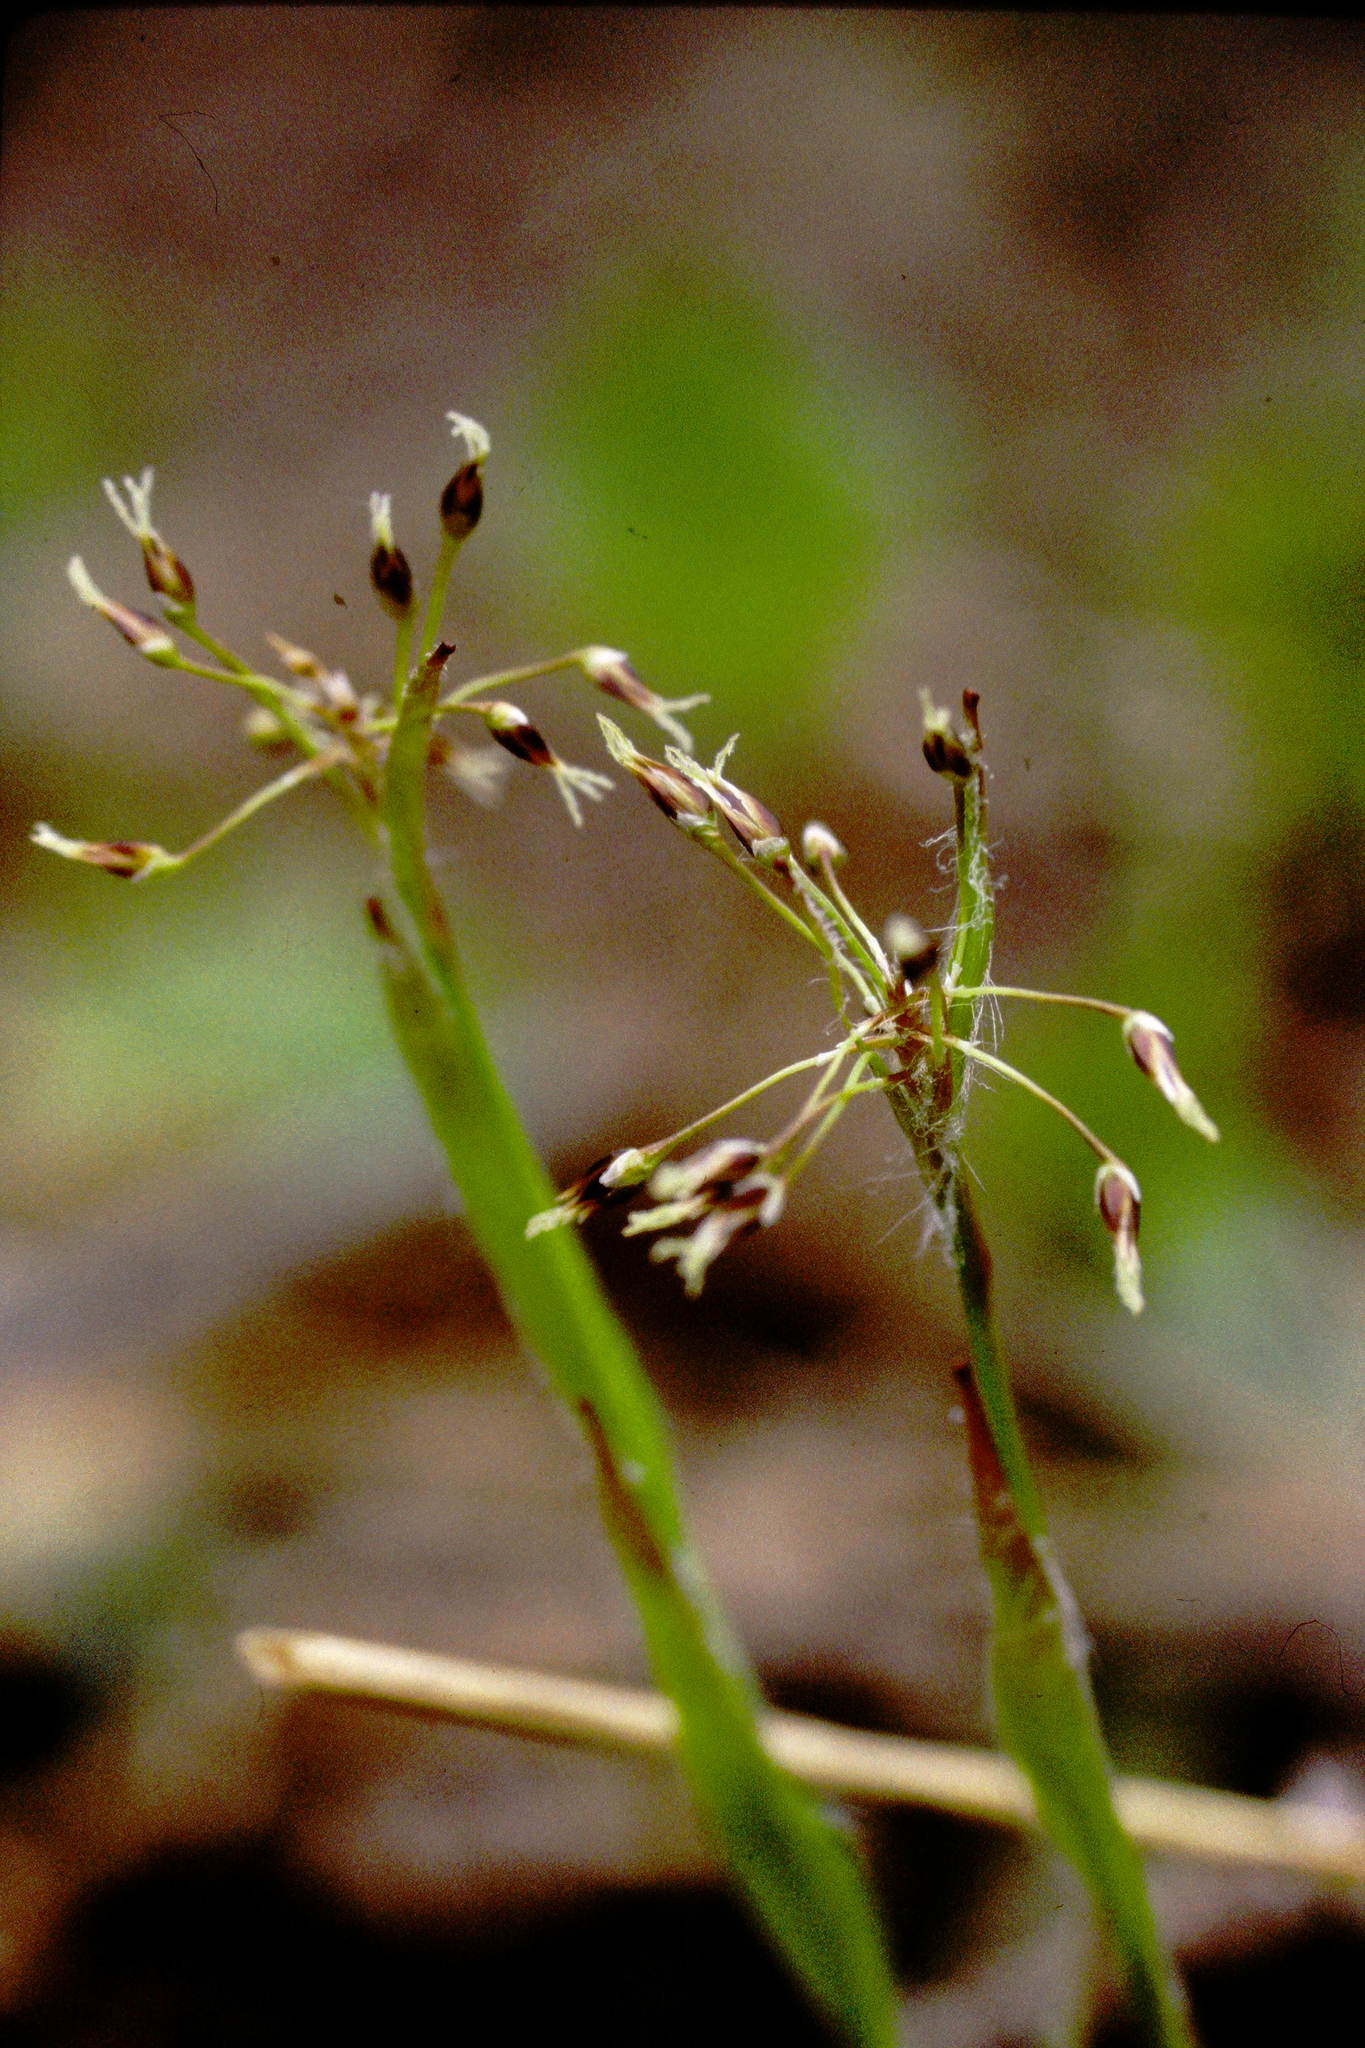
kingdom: Plantae
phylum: Tracheophyta
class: Liliopsida
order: Poales
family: Juncaceae
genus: Luzula
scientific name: Luzula acuminata
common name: Hairy woodrush
